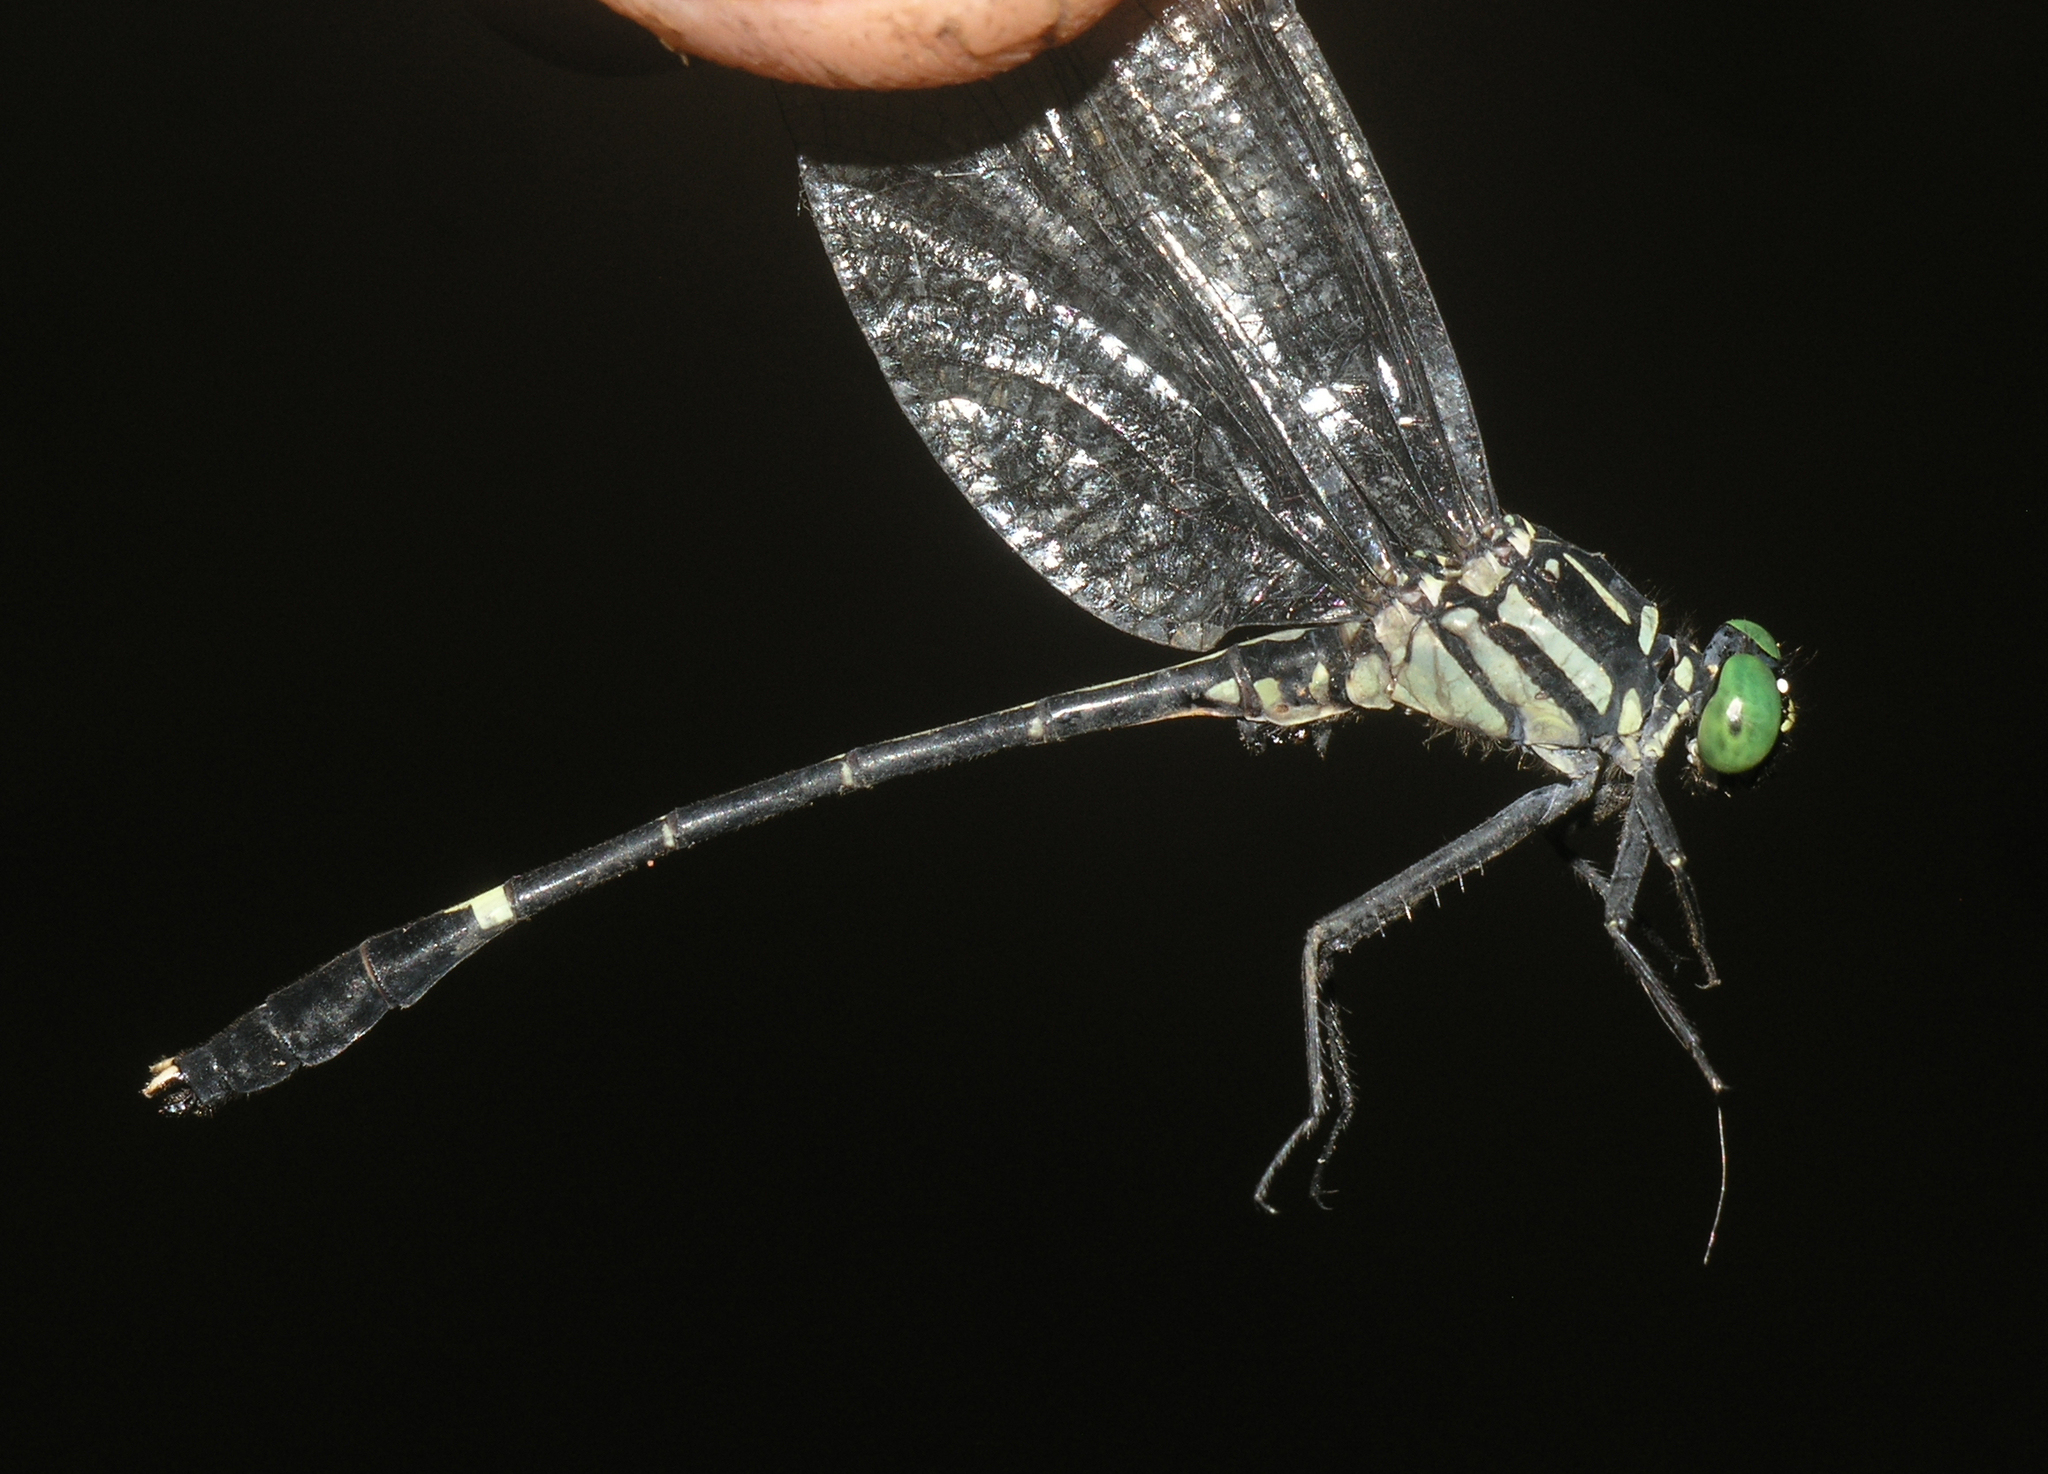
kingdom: Animalia
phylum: Arthropoda
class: Insecta
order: Odonata
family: Gomphidae
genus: Euthygomphus
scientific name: Euthygomphus schorri
